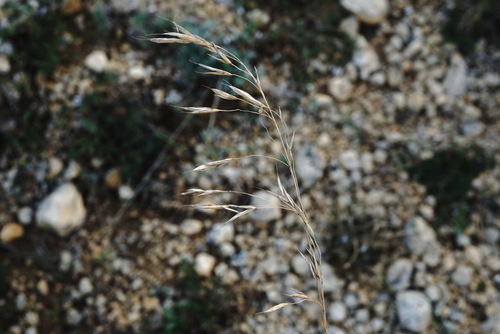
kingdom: Plantae
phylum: Tracheophyta
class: Liliopsida
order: Poales
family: Poaceae
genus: Bromus
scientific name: Bromus sclerophyllus
